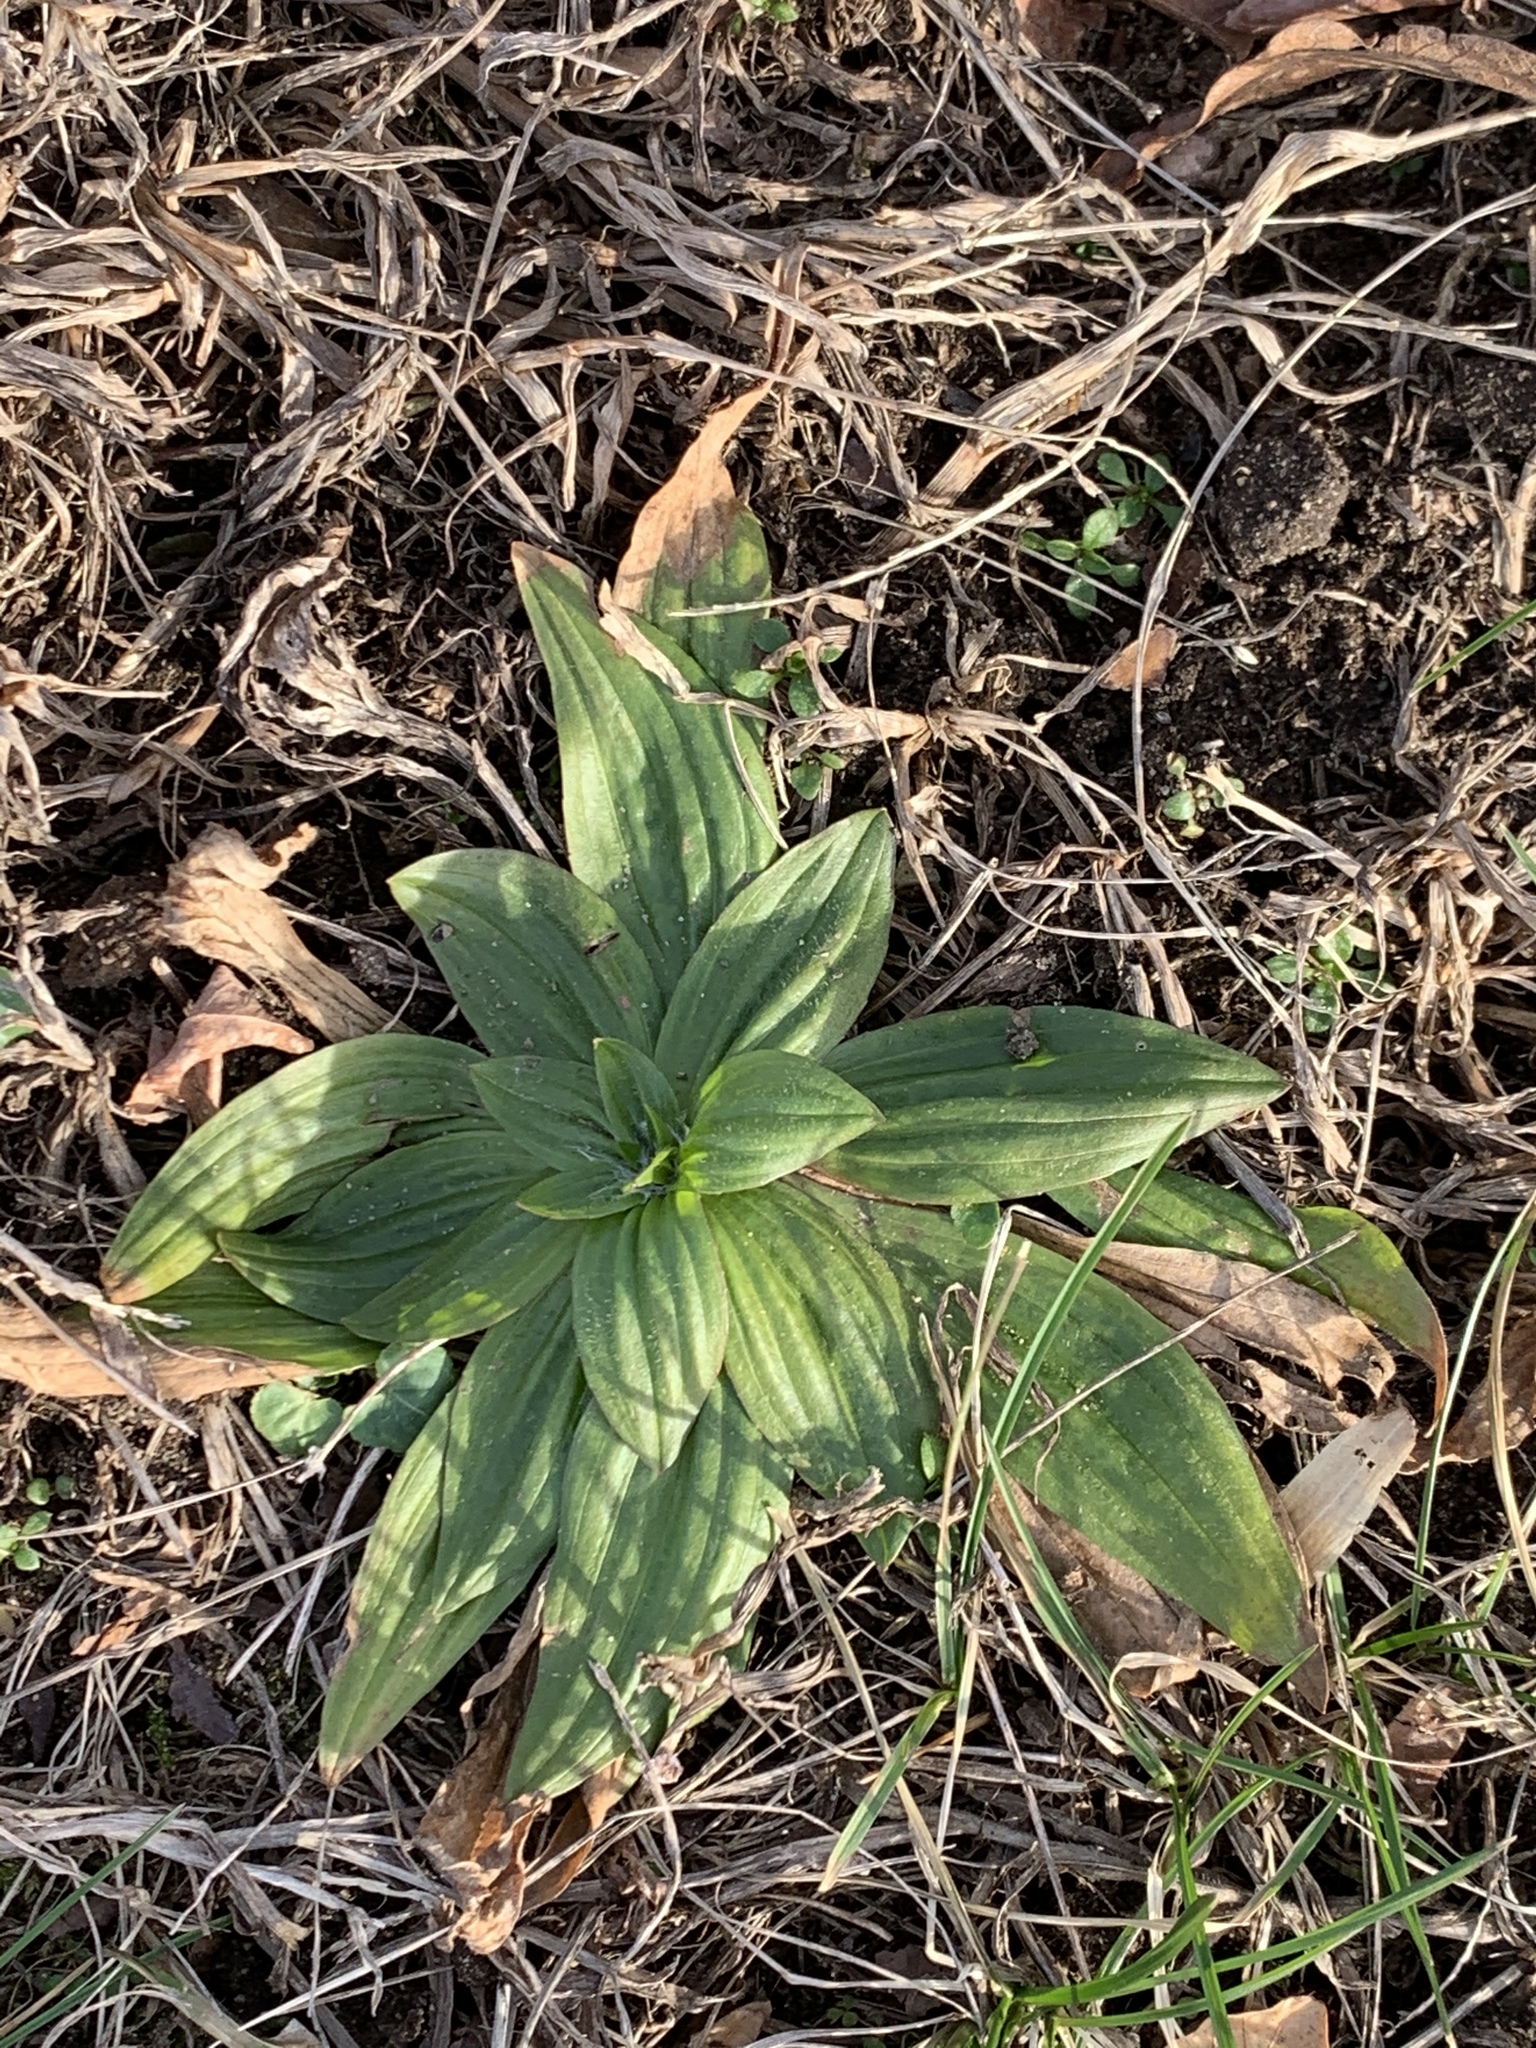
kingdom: Plantae
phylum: Tracheophyta
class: Magnoliopsida
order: Lamiales
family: Plantaginaceae
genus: Plantago
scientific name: Plantago lanceolata
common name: Ribwort plantain
